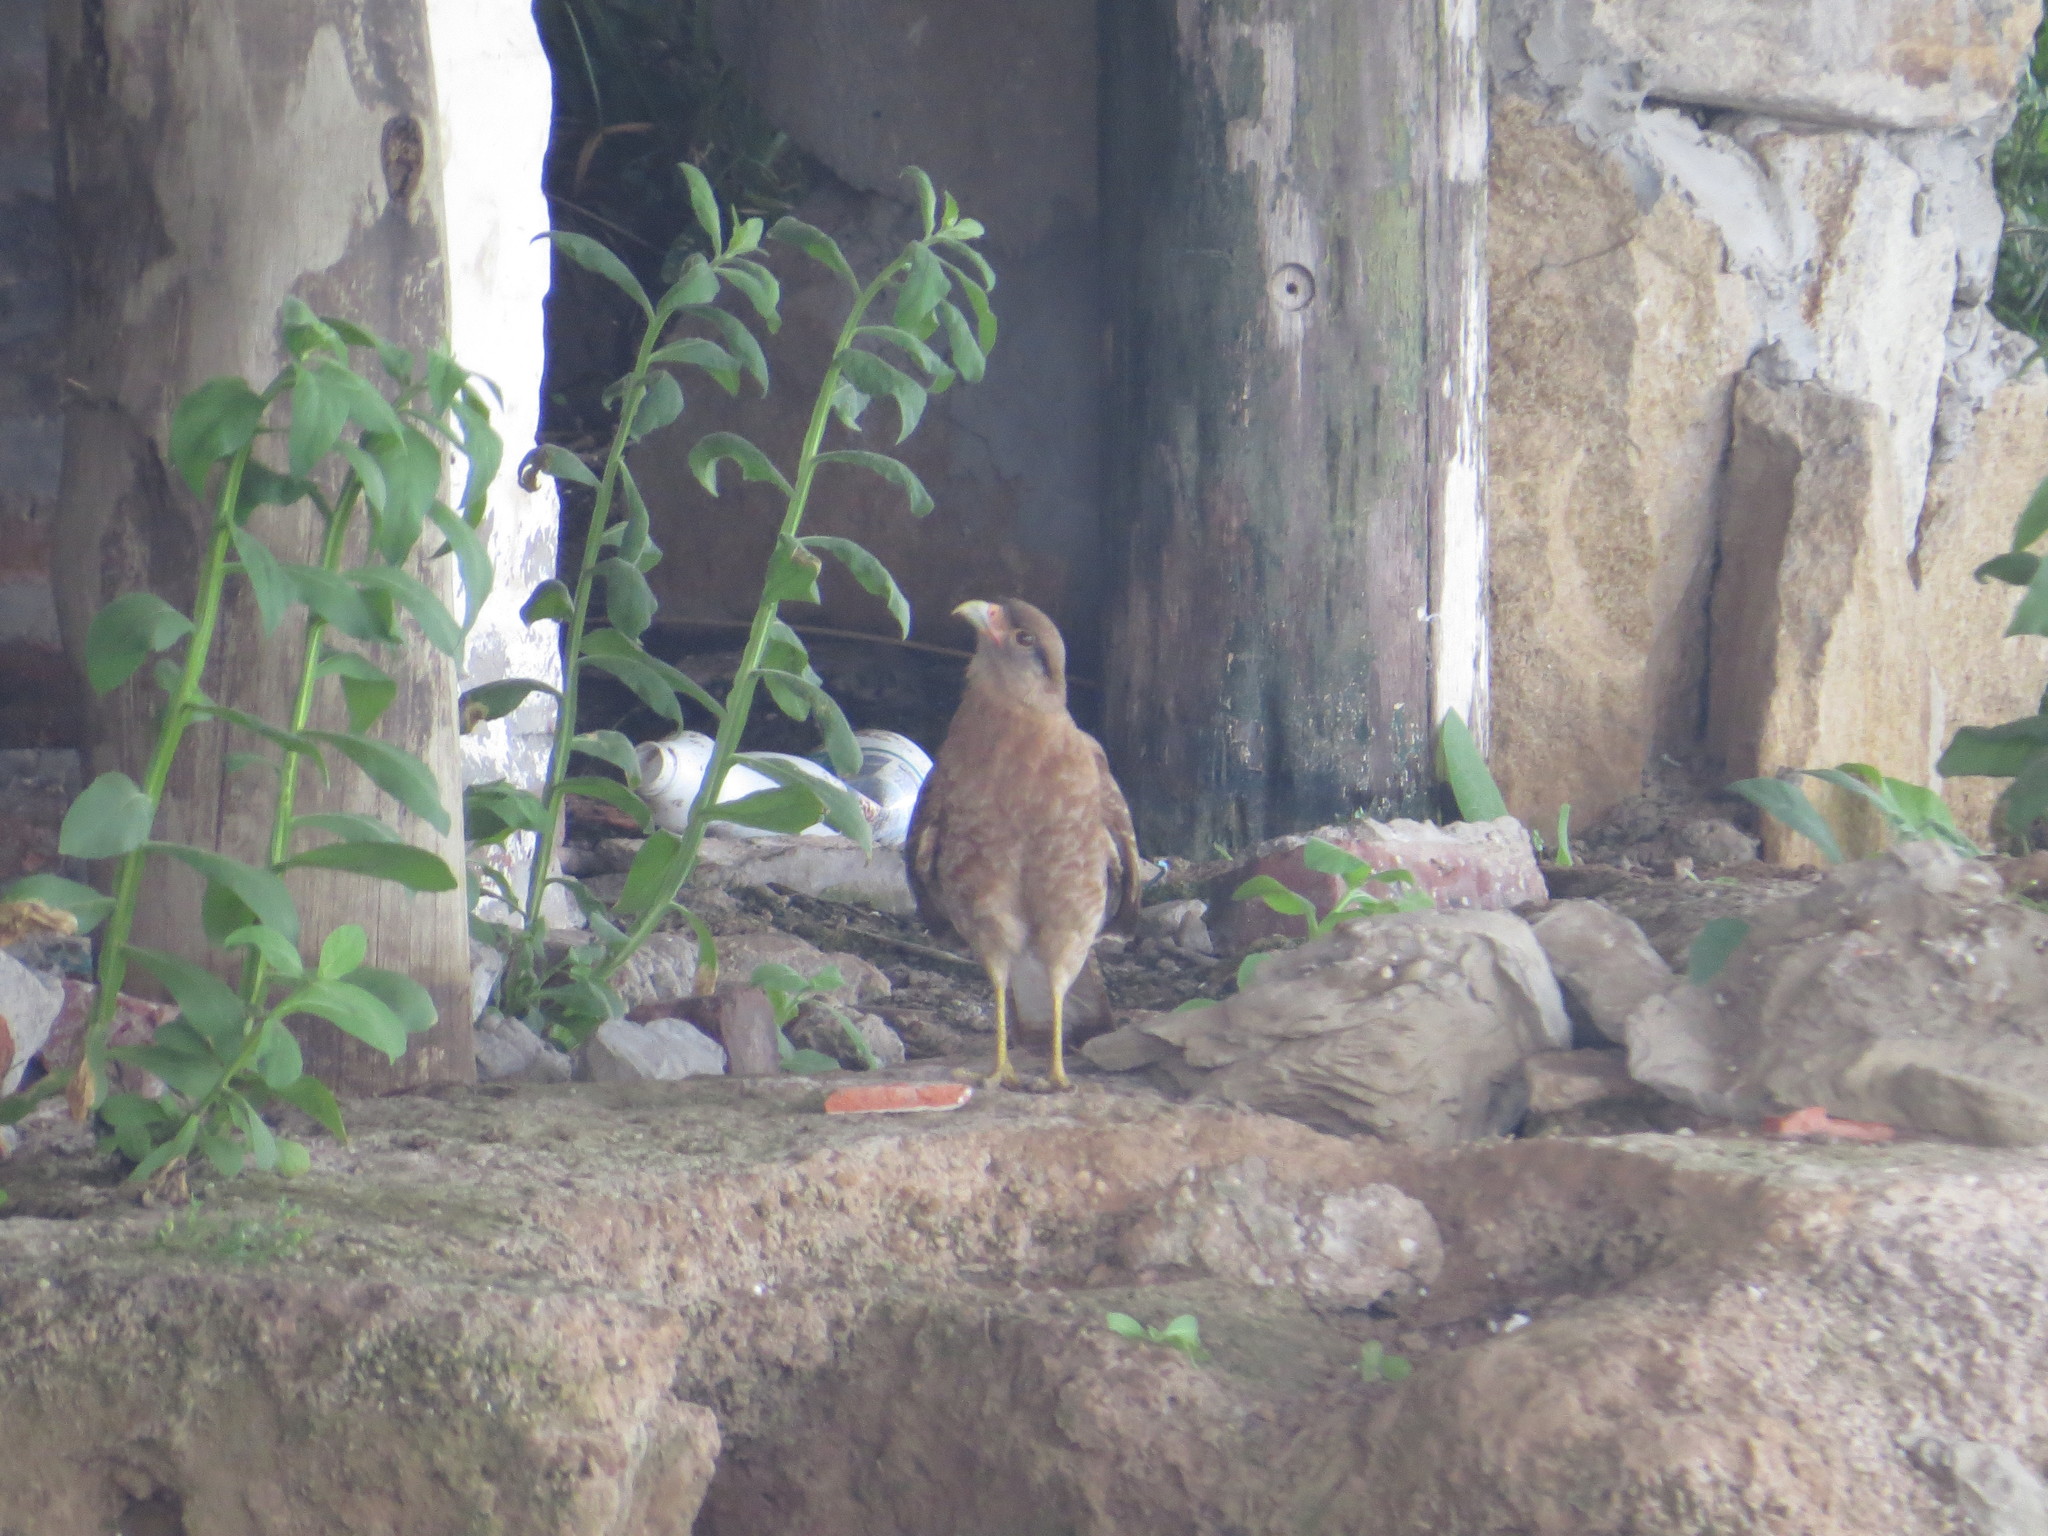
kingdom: Animalia
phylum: Chordata
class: Aves
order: Falconiformes
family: Falconidae
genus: Daptrius
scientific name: Daptrius
